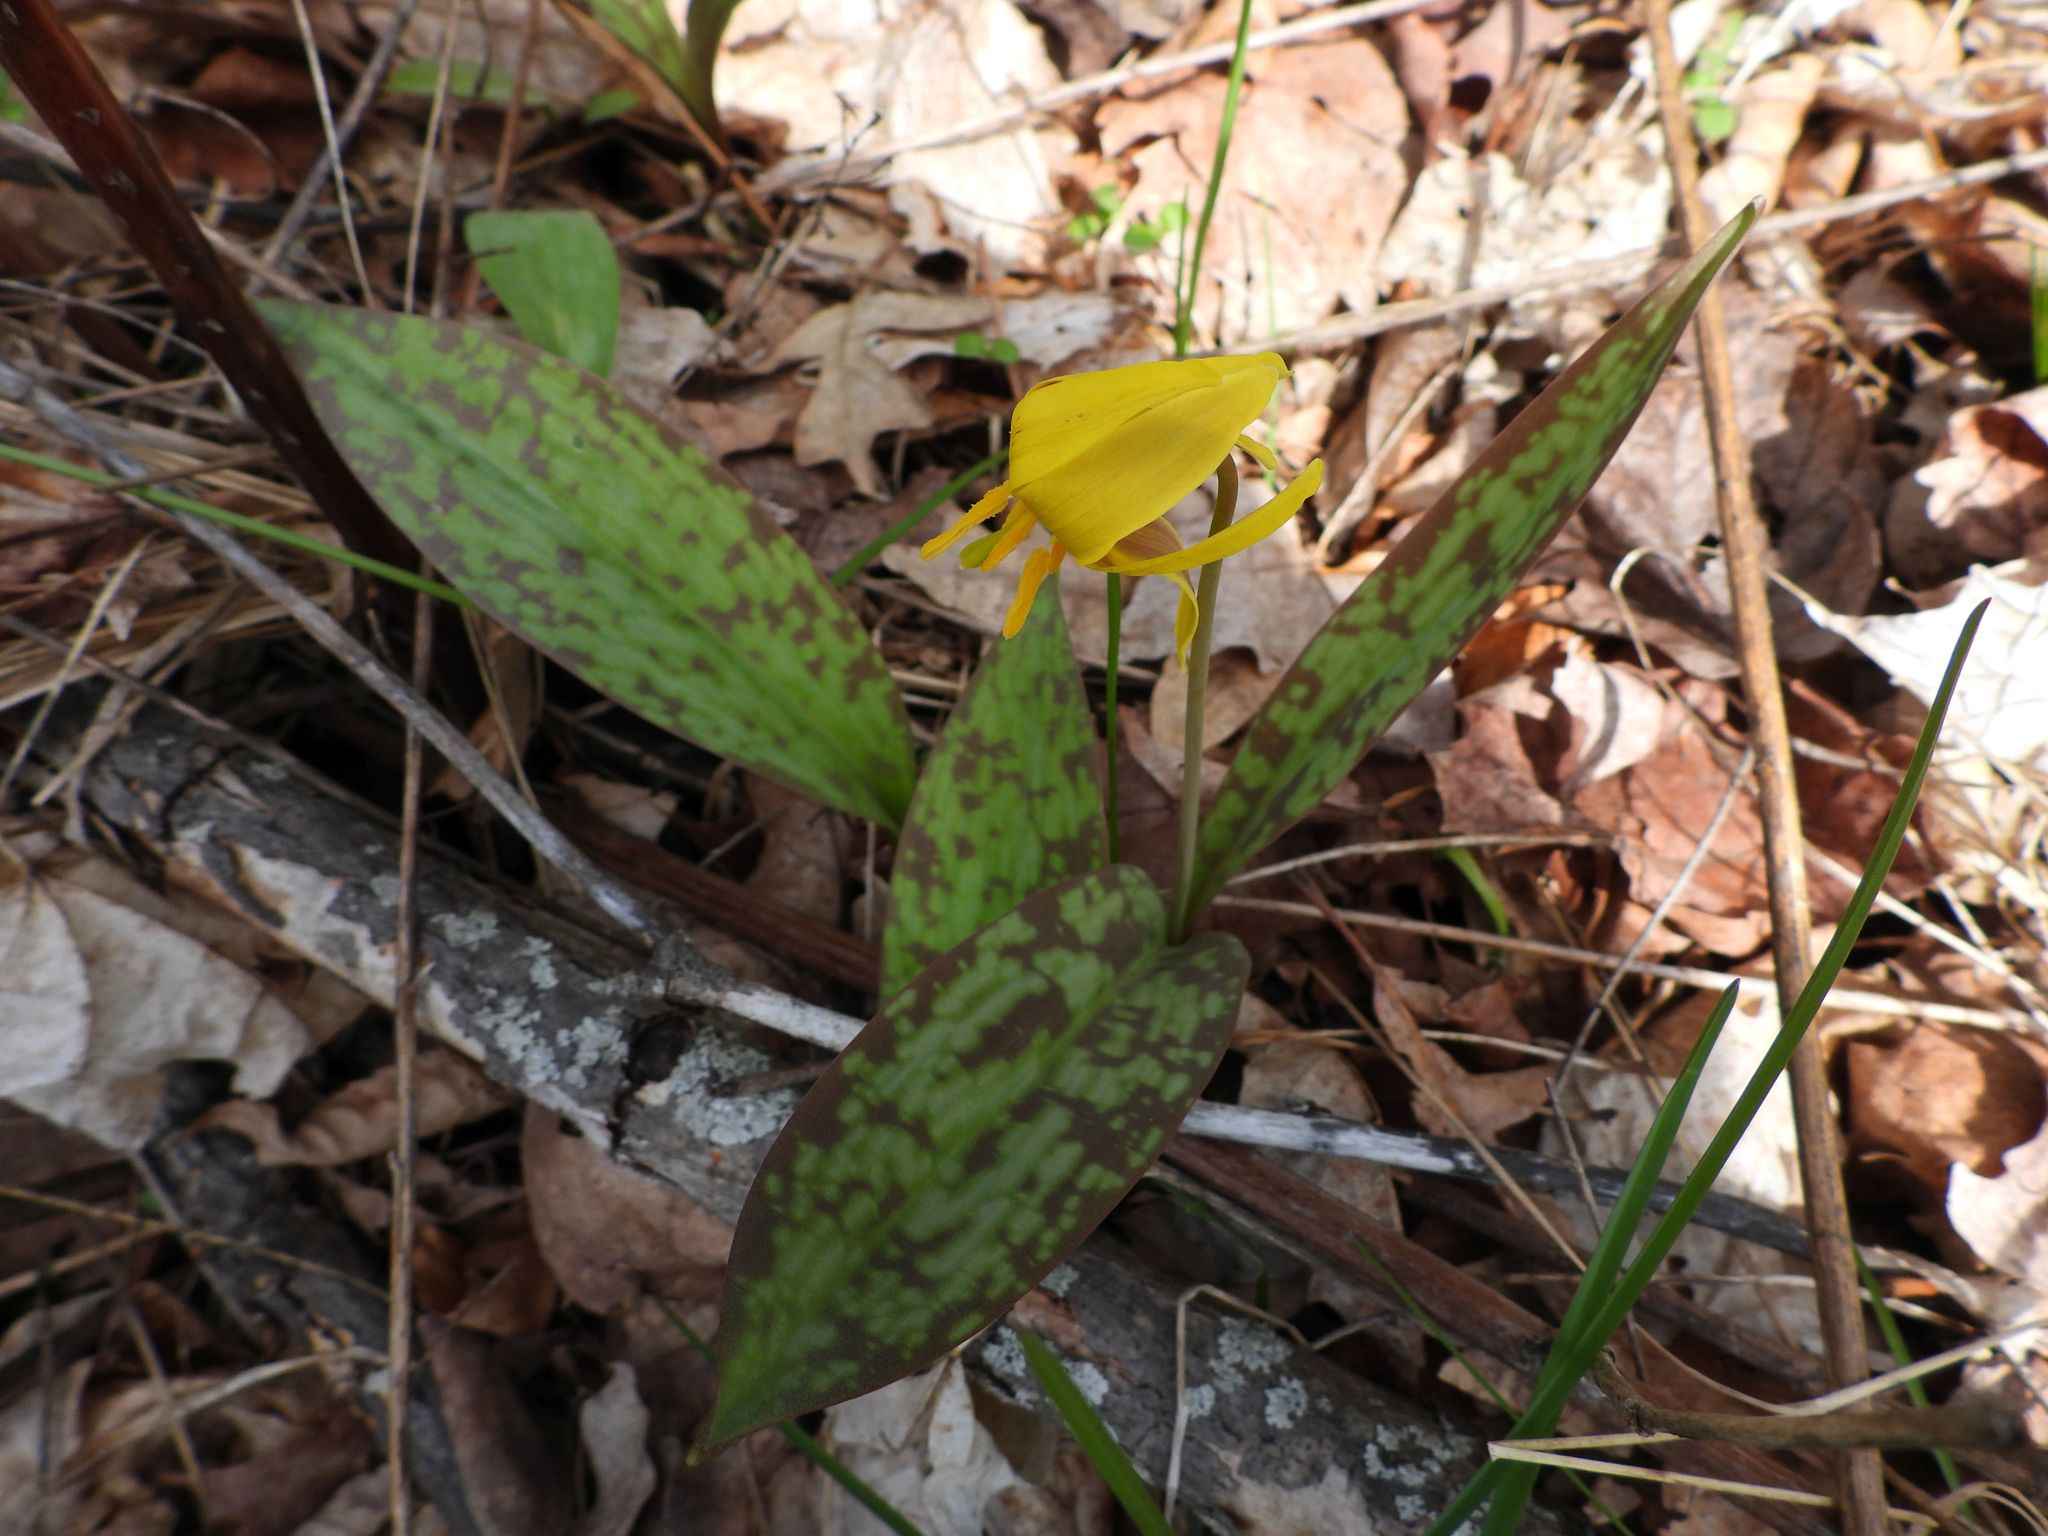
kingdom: Plantae
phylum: Tracheophyta
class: Liliopsida
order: Liliales
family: Liliaceae
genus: Erythronium
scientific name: Erythronium americanum
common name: Yellow adder's-tongue
